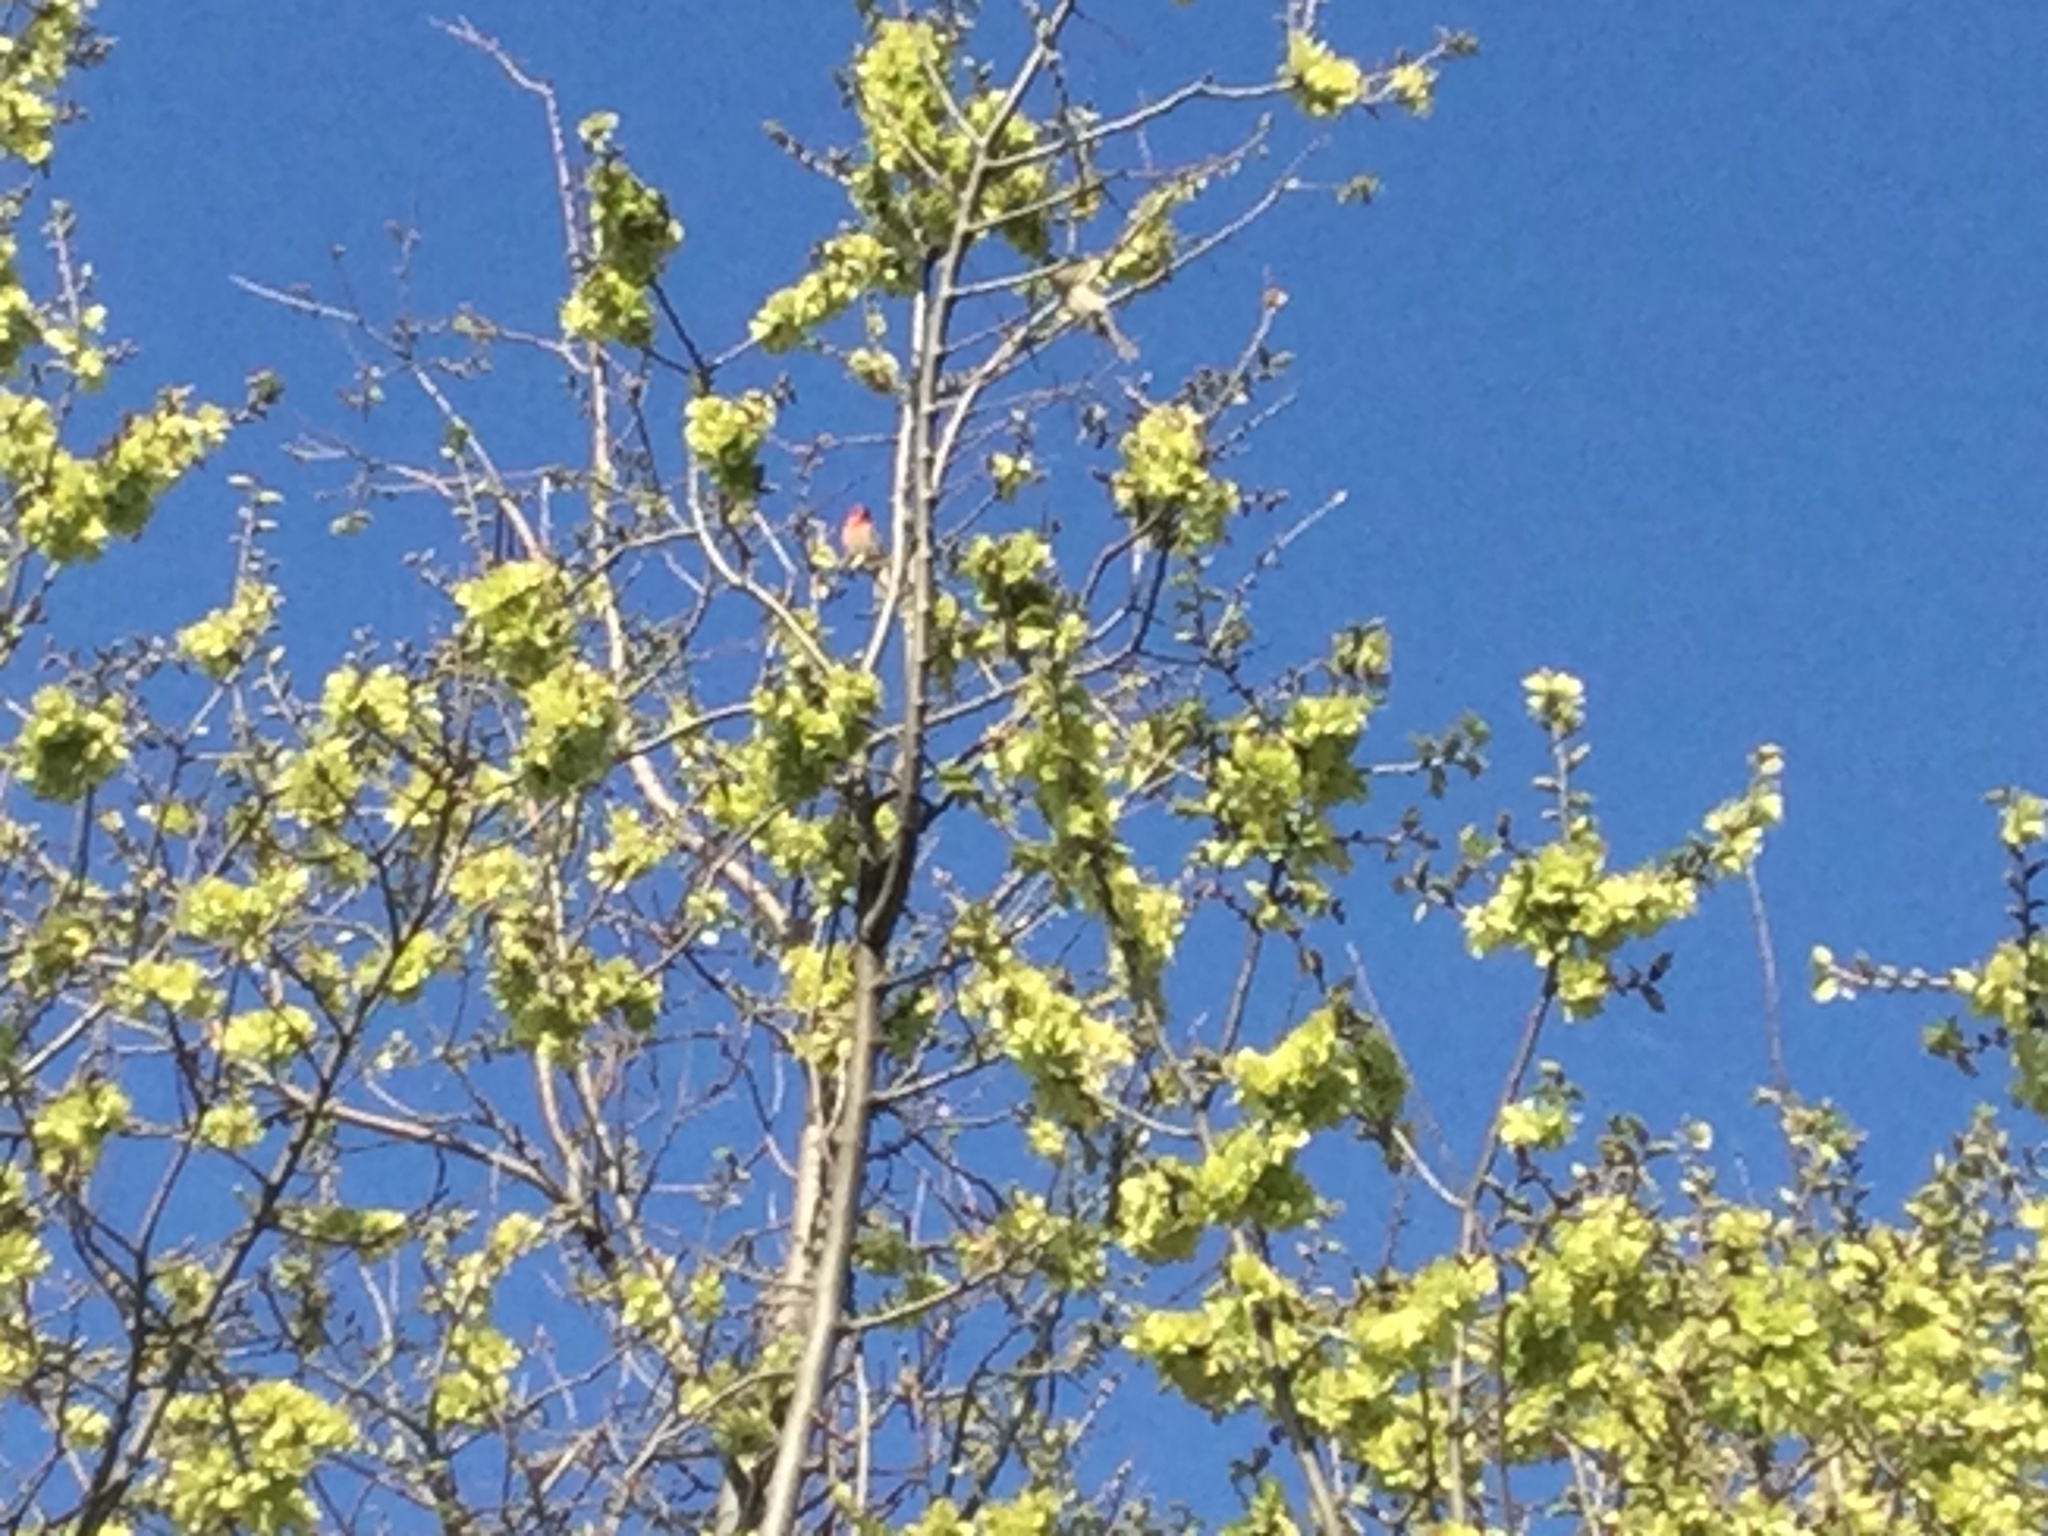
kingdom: Animalia
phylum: Chordata
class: Aves
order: Passeriformes
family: Fringillidae
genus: Haemorhous
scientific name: Haemorhous mexicanus
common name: House finch
